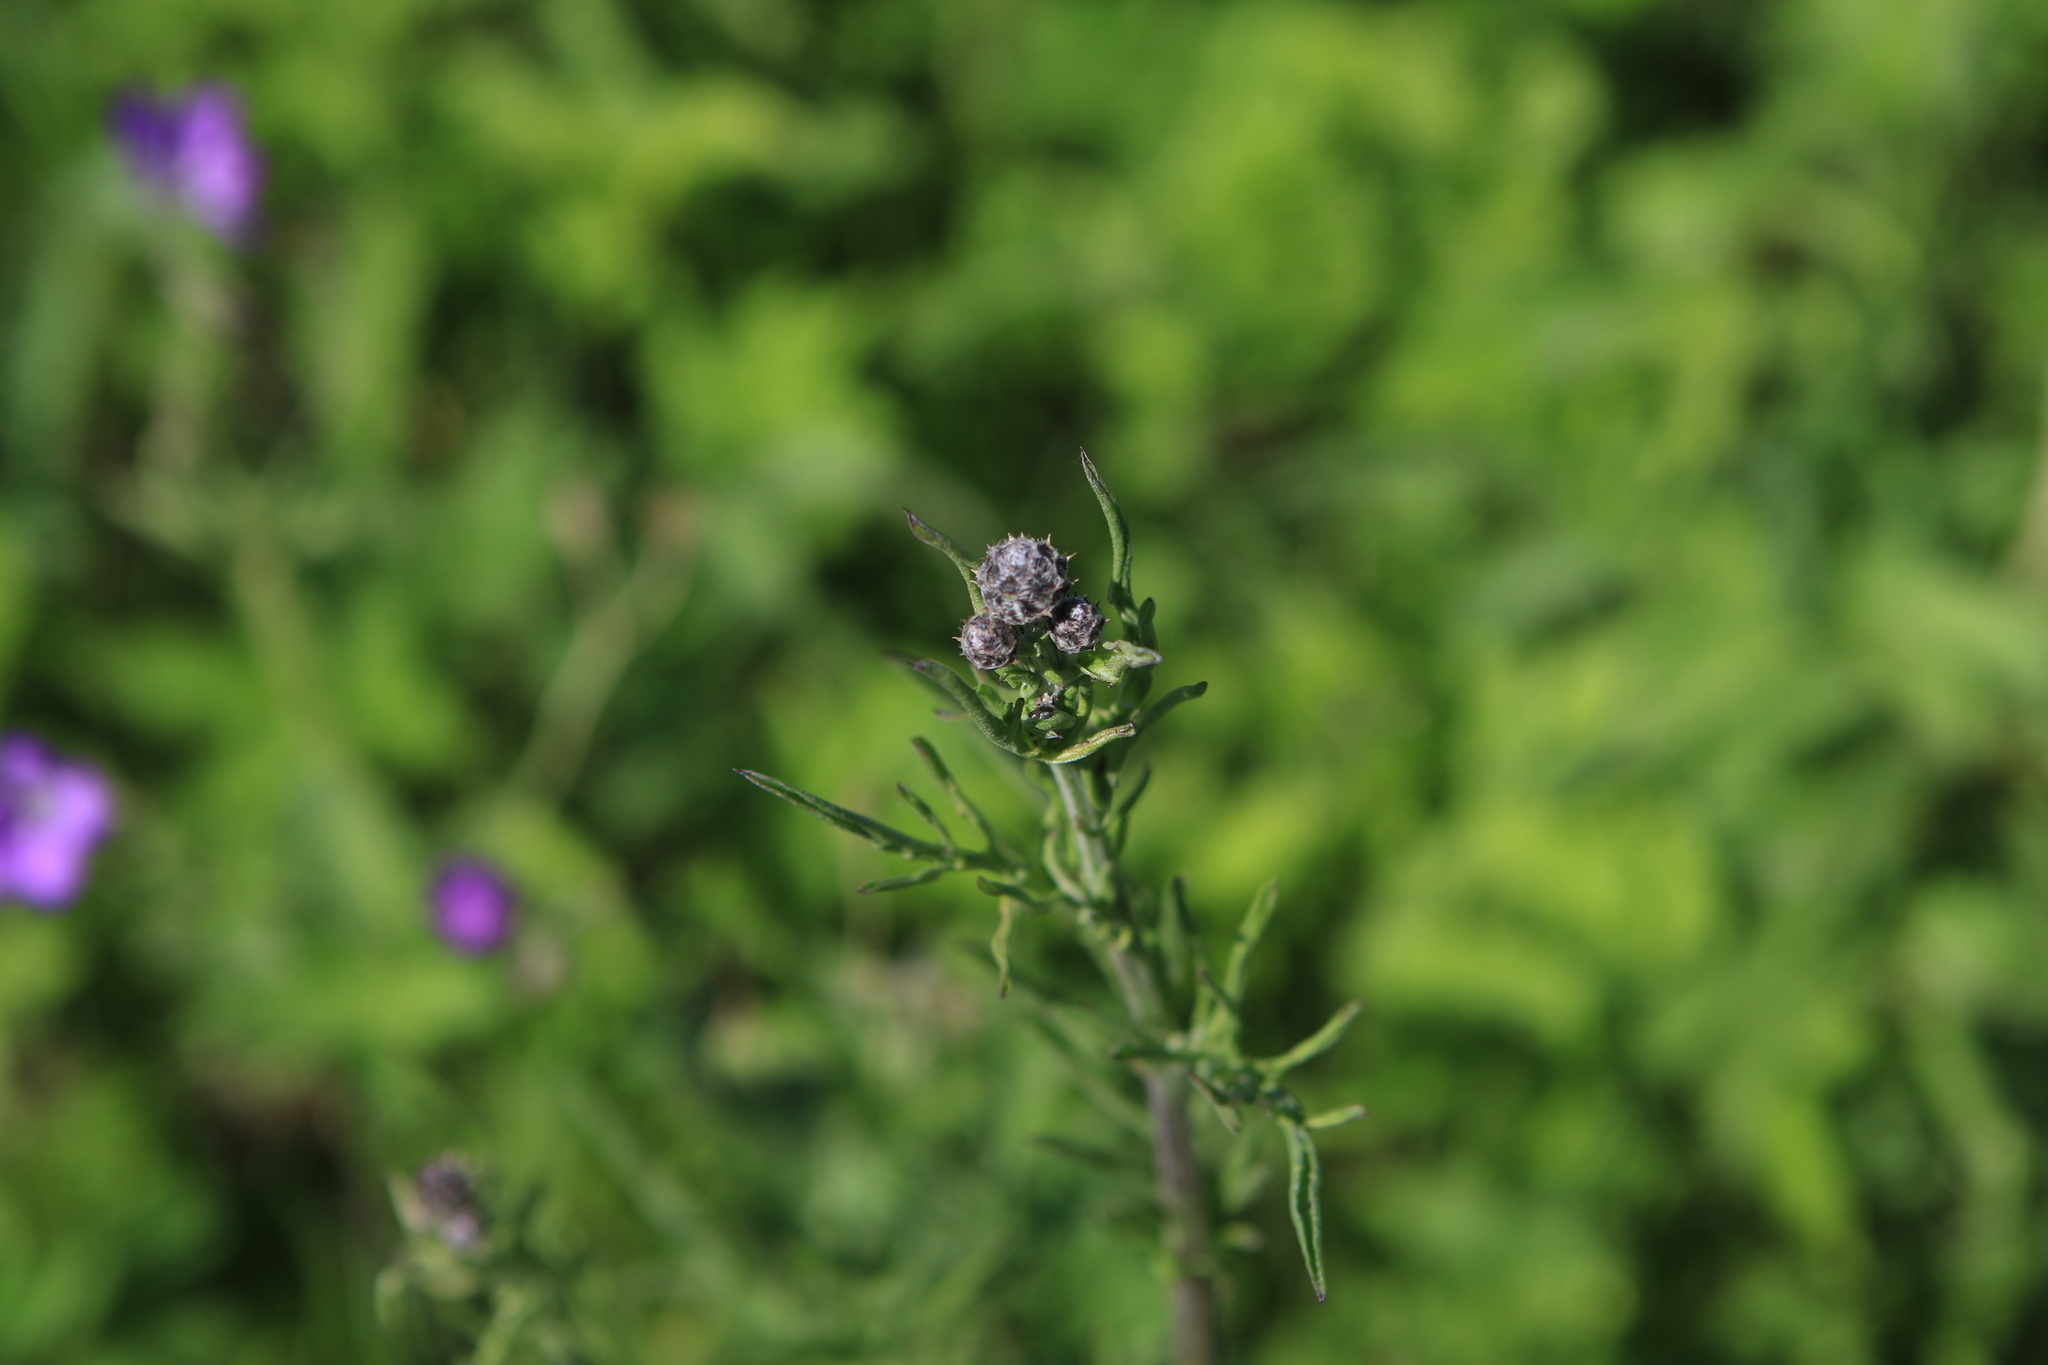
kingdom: Plantae
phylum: Tracheophyta
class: Magnoliopsida
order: Asterales
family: Asteraceae
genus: Centaurea
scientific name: Centaurea scabiosa
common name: Greater knapweed
